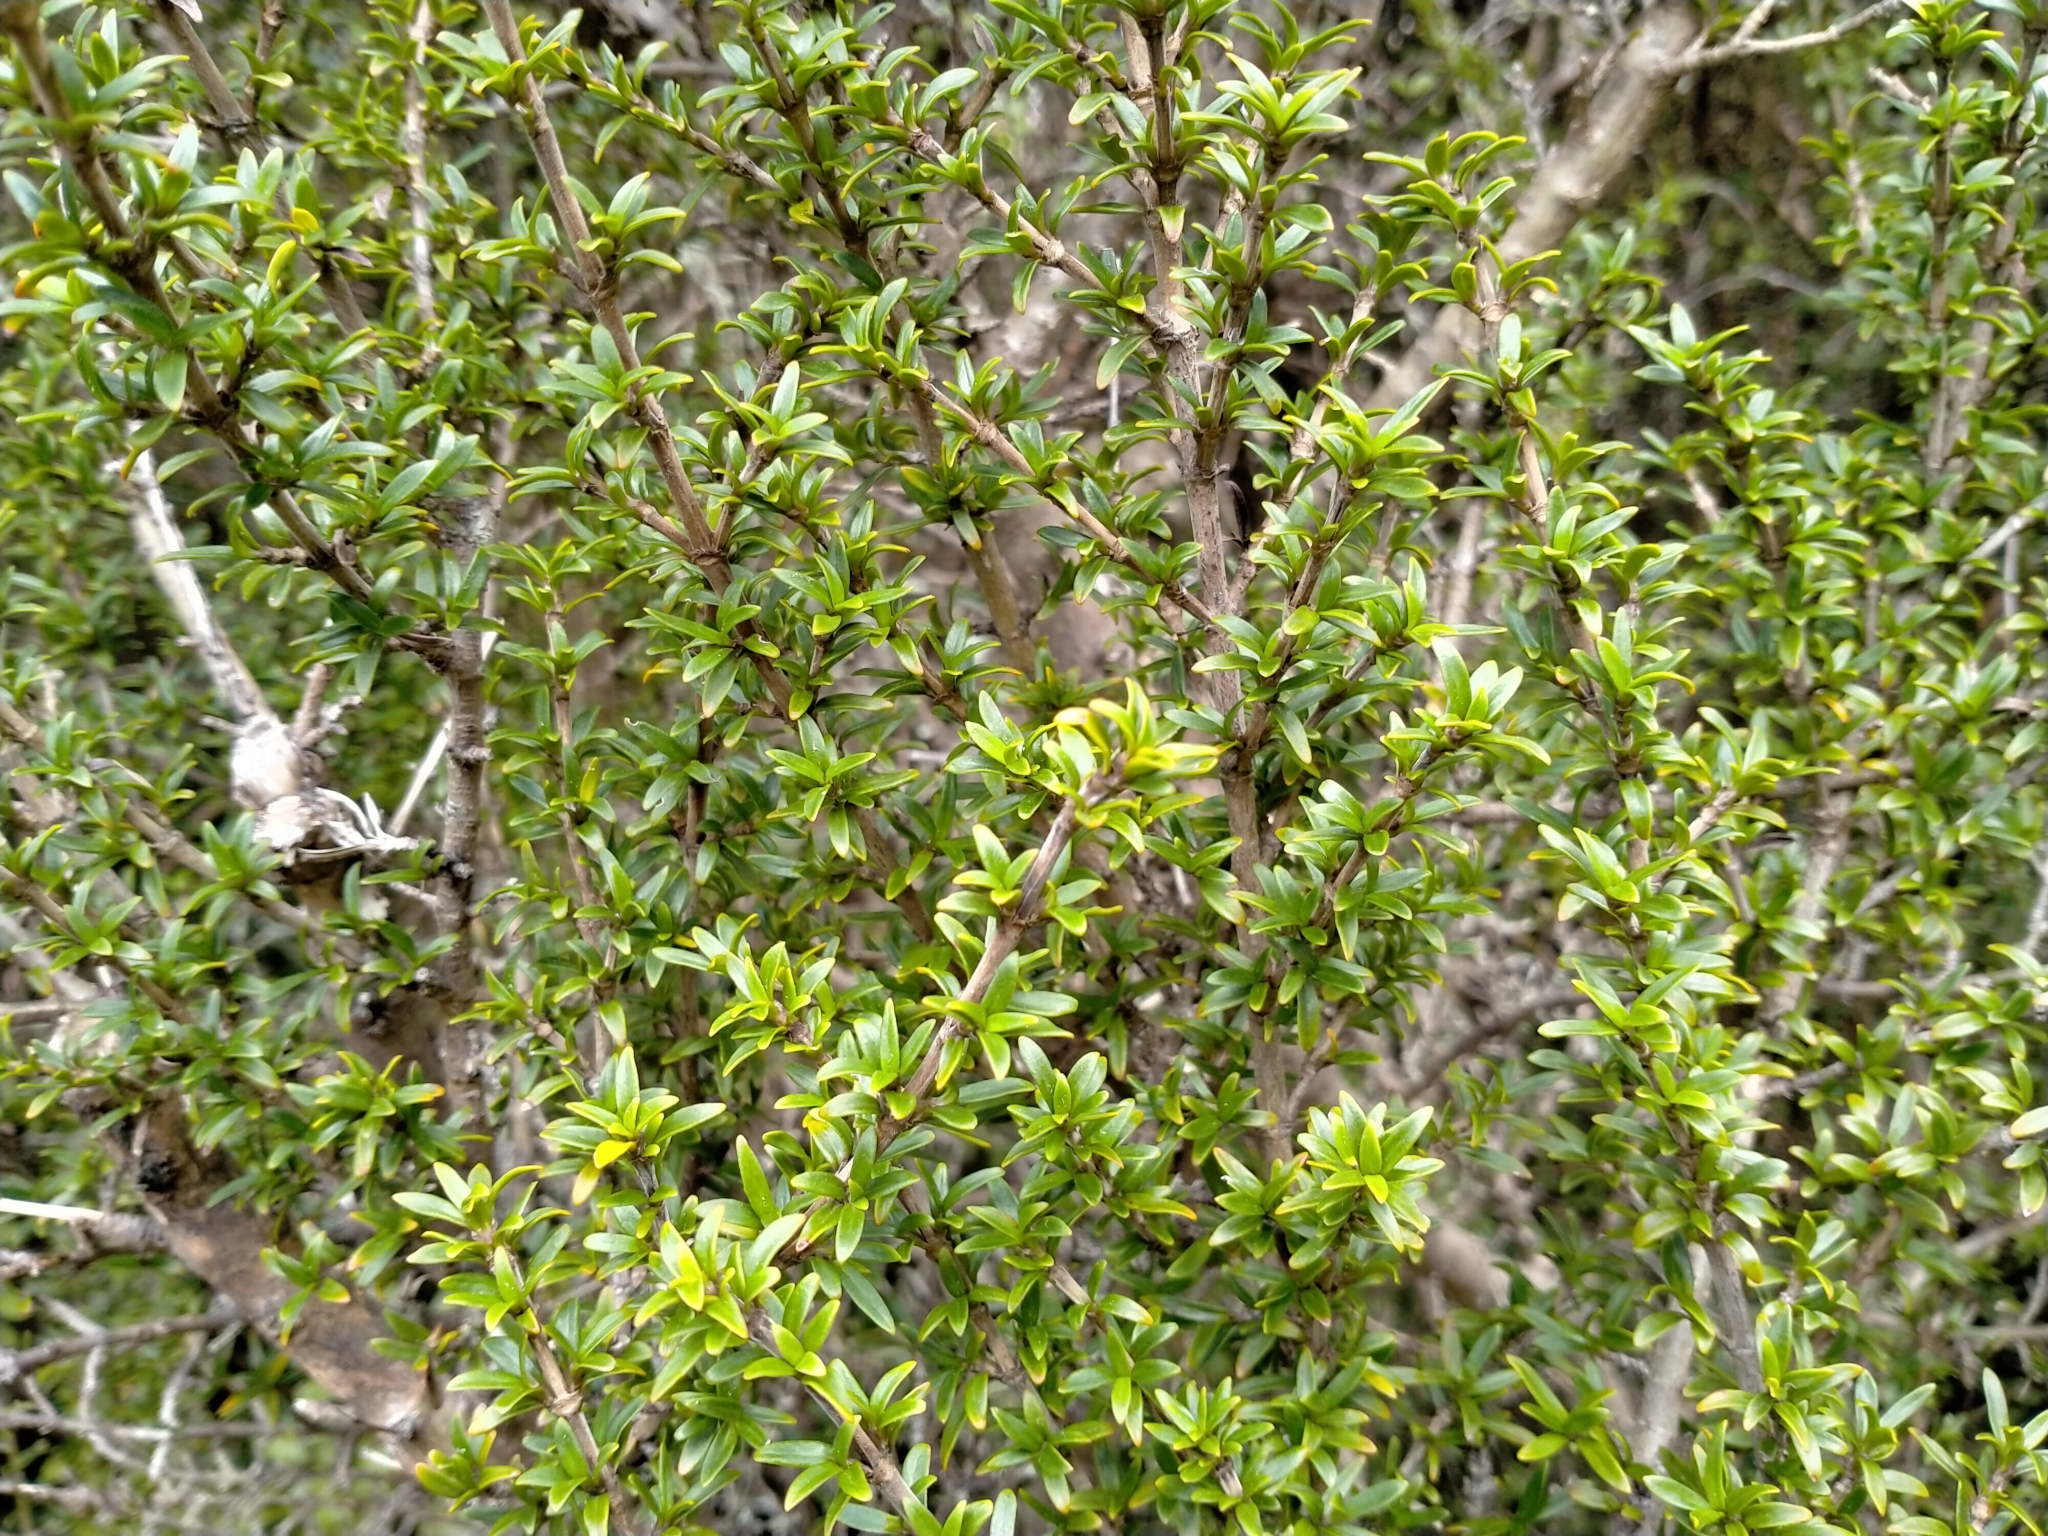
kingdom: Plantae
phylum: Tracheophyta
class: Magnoliopsida
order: Gentianales
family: Rubiaceae
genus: Coprosma
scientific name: Coprosma pseudocuneata
